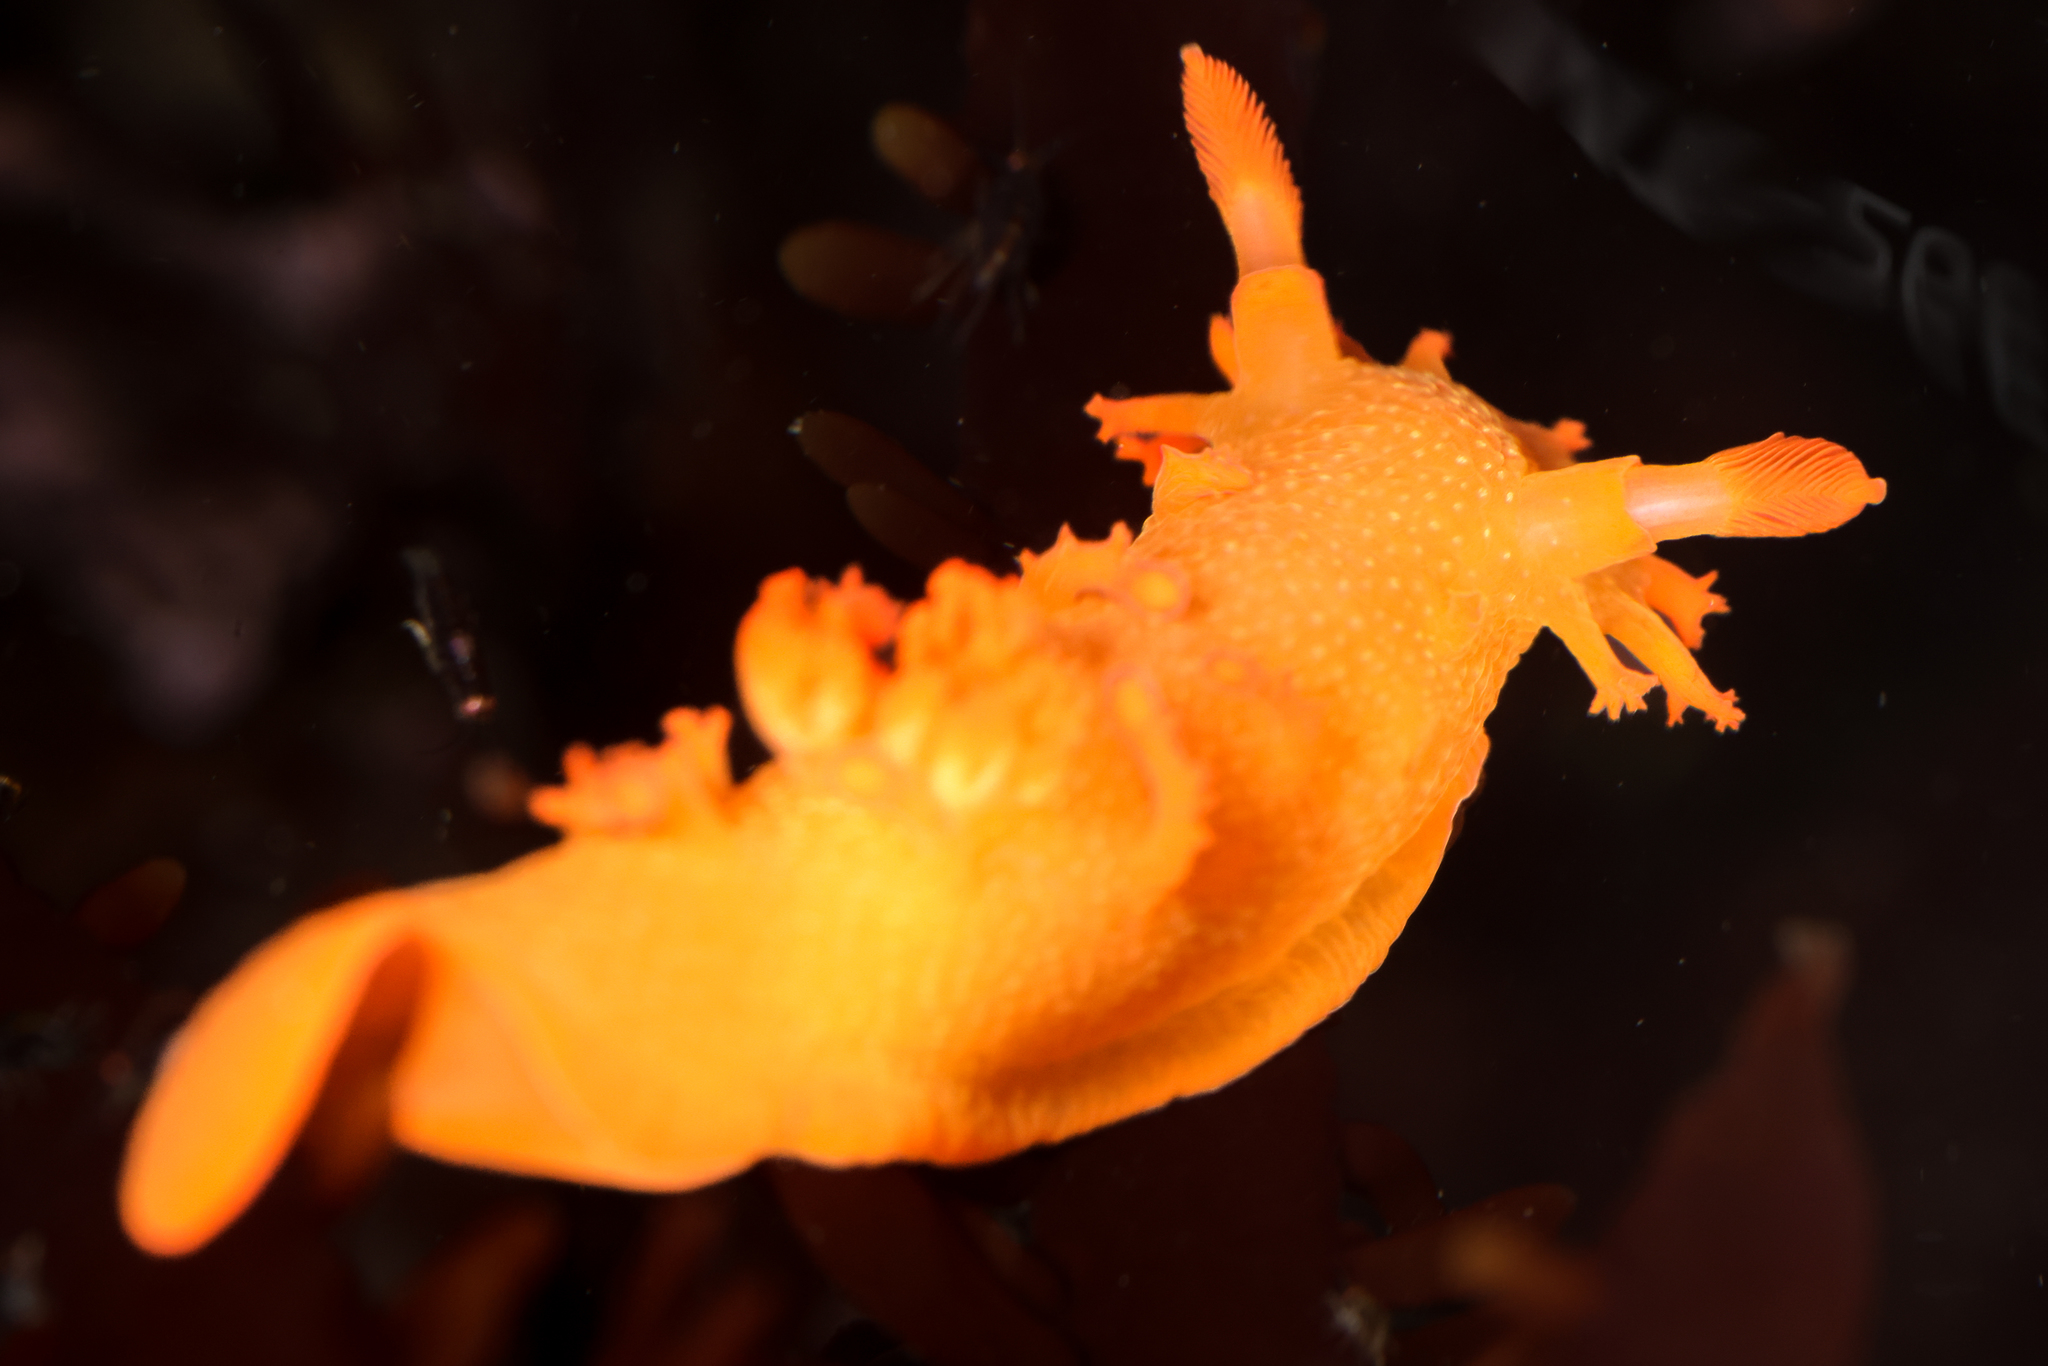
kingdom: Animalia
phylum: Mollusca
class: Gastropoda
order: Nudibranchia
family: Polyceridae
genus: Triopha
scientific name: Triopha maculata
